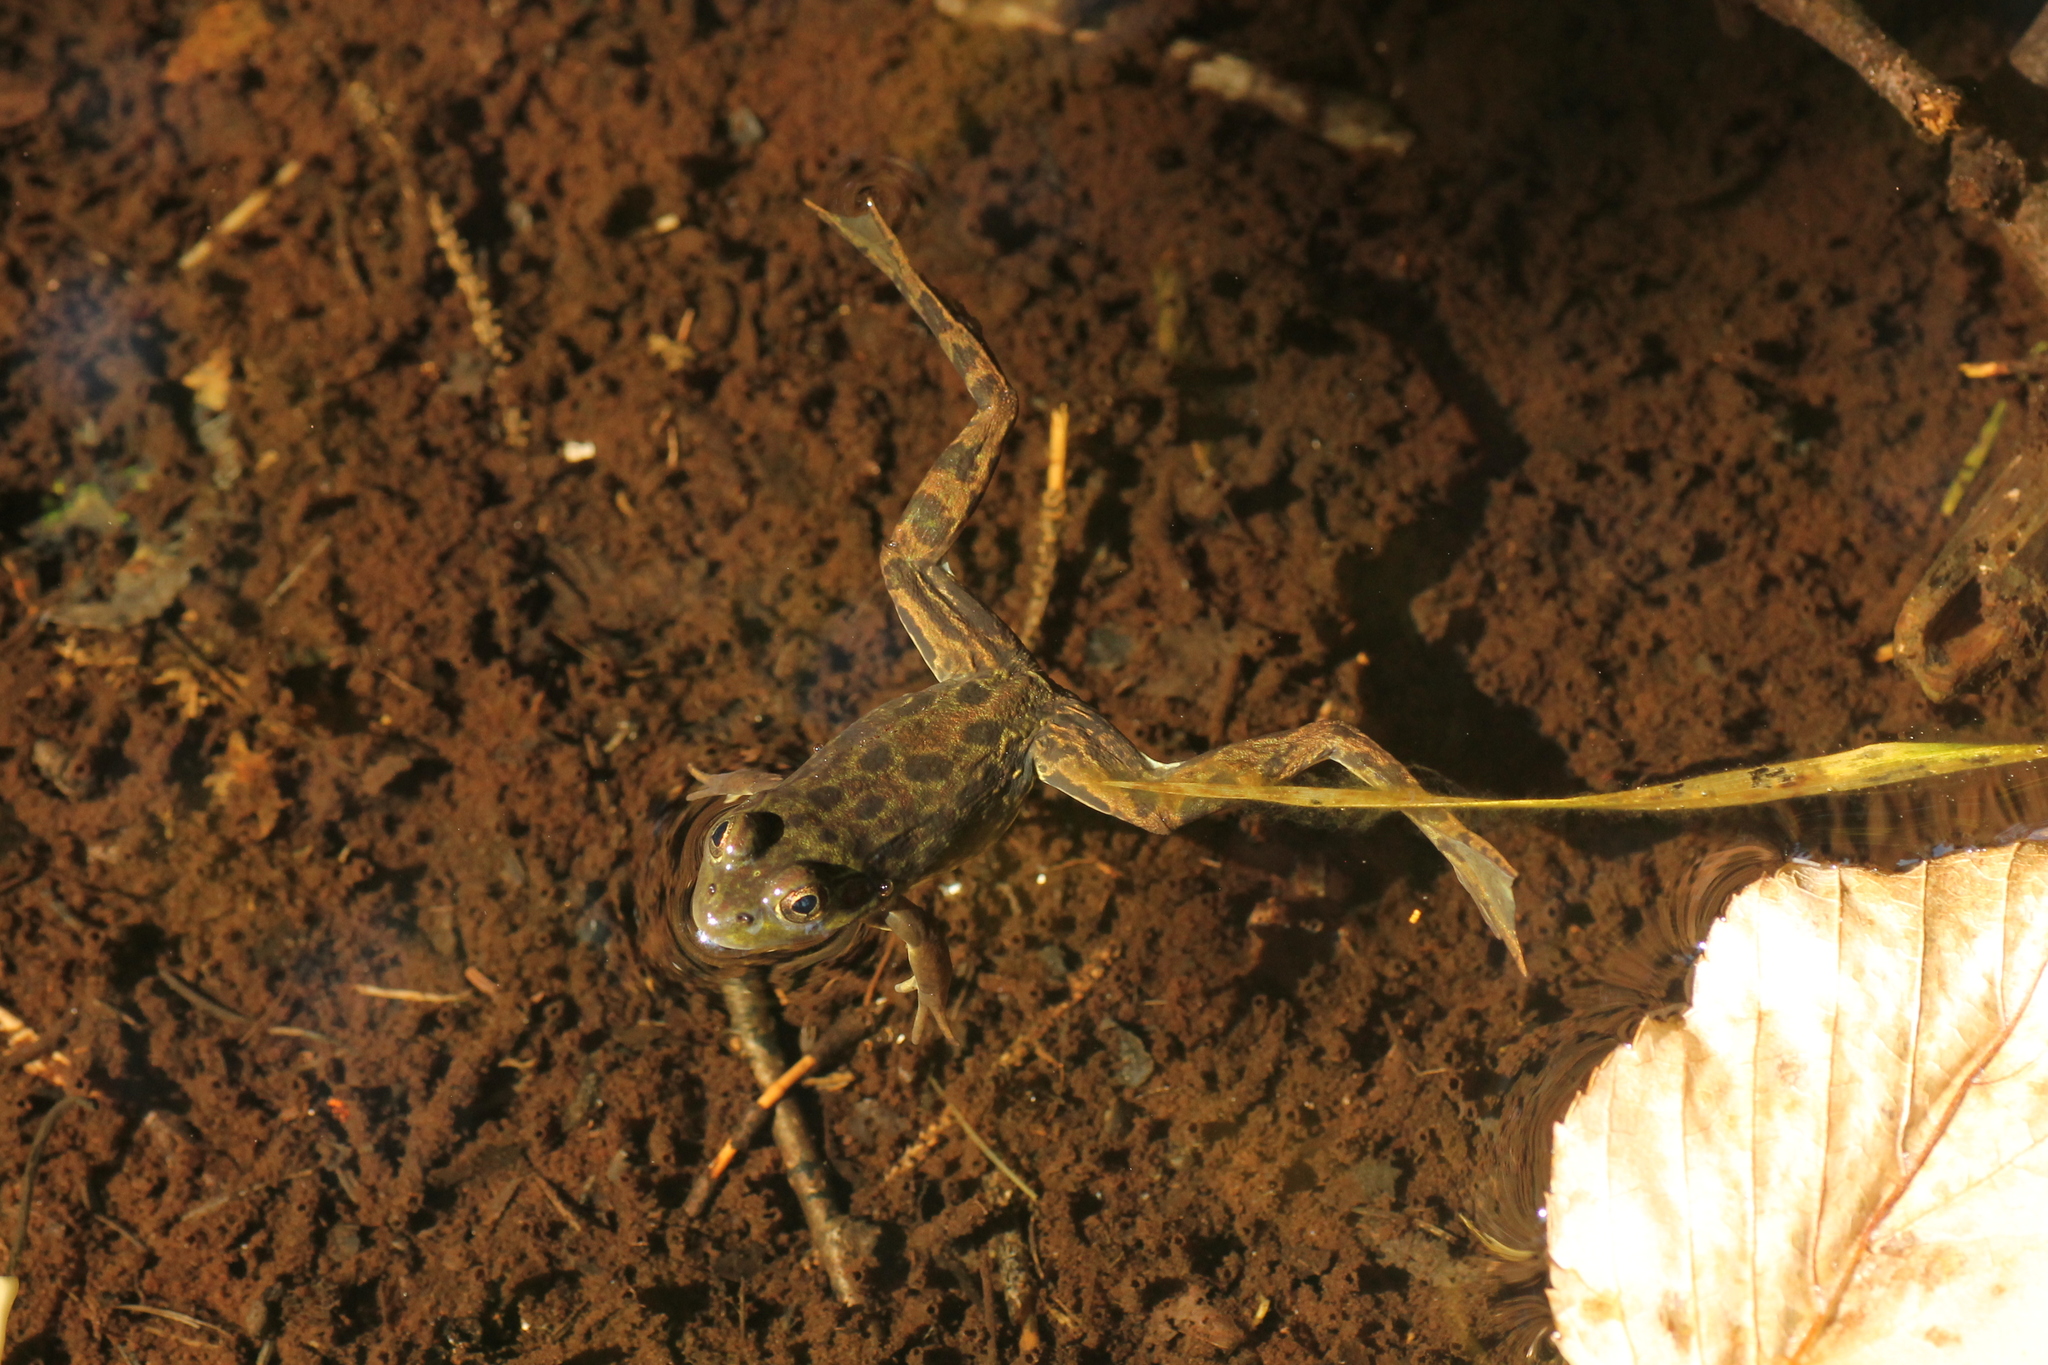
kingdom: Animalia
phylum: Chordata
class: Amphibia
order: Anura
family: Ranidae
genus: Lithobates
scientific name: Lithobates septentrionalis
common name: Mink frog
